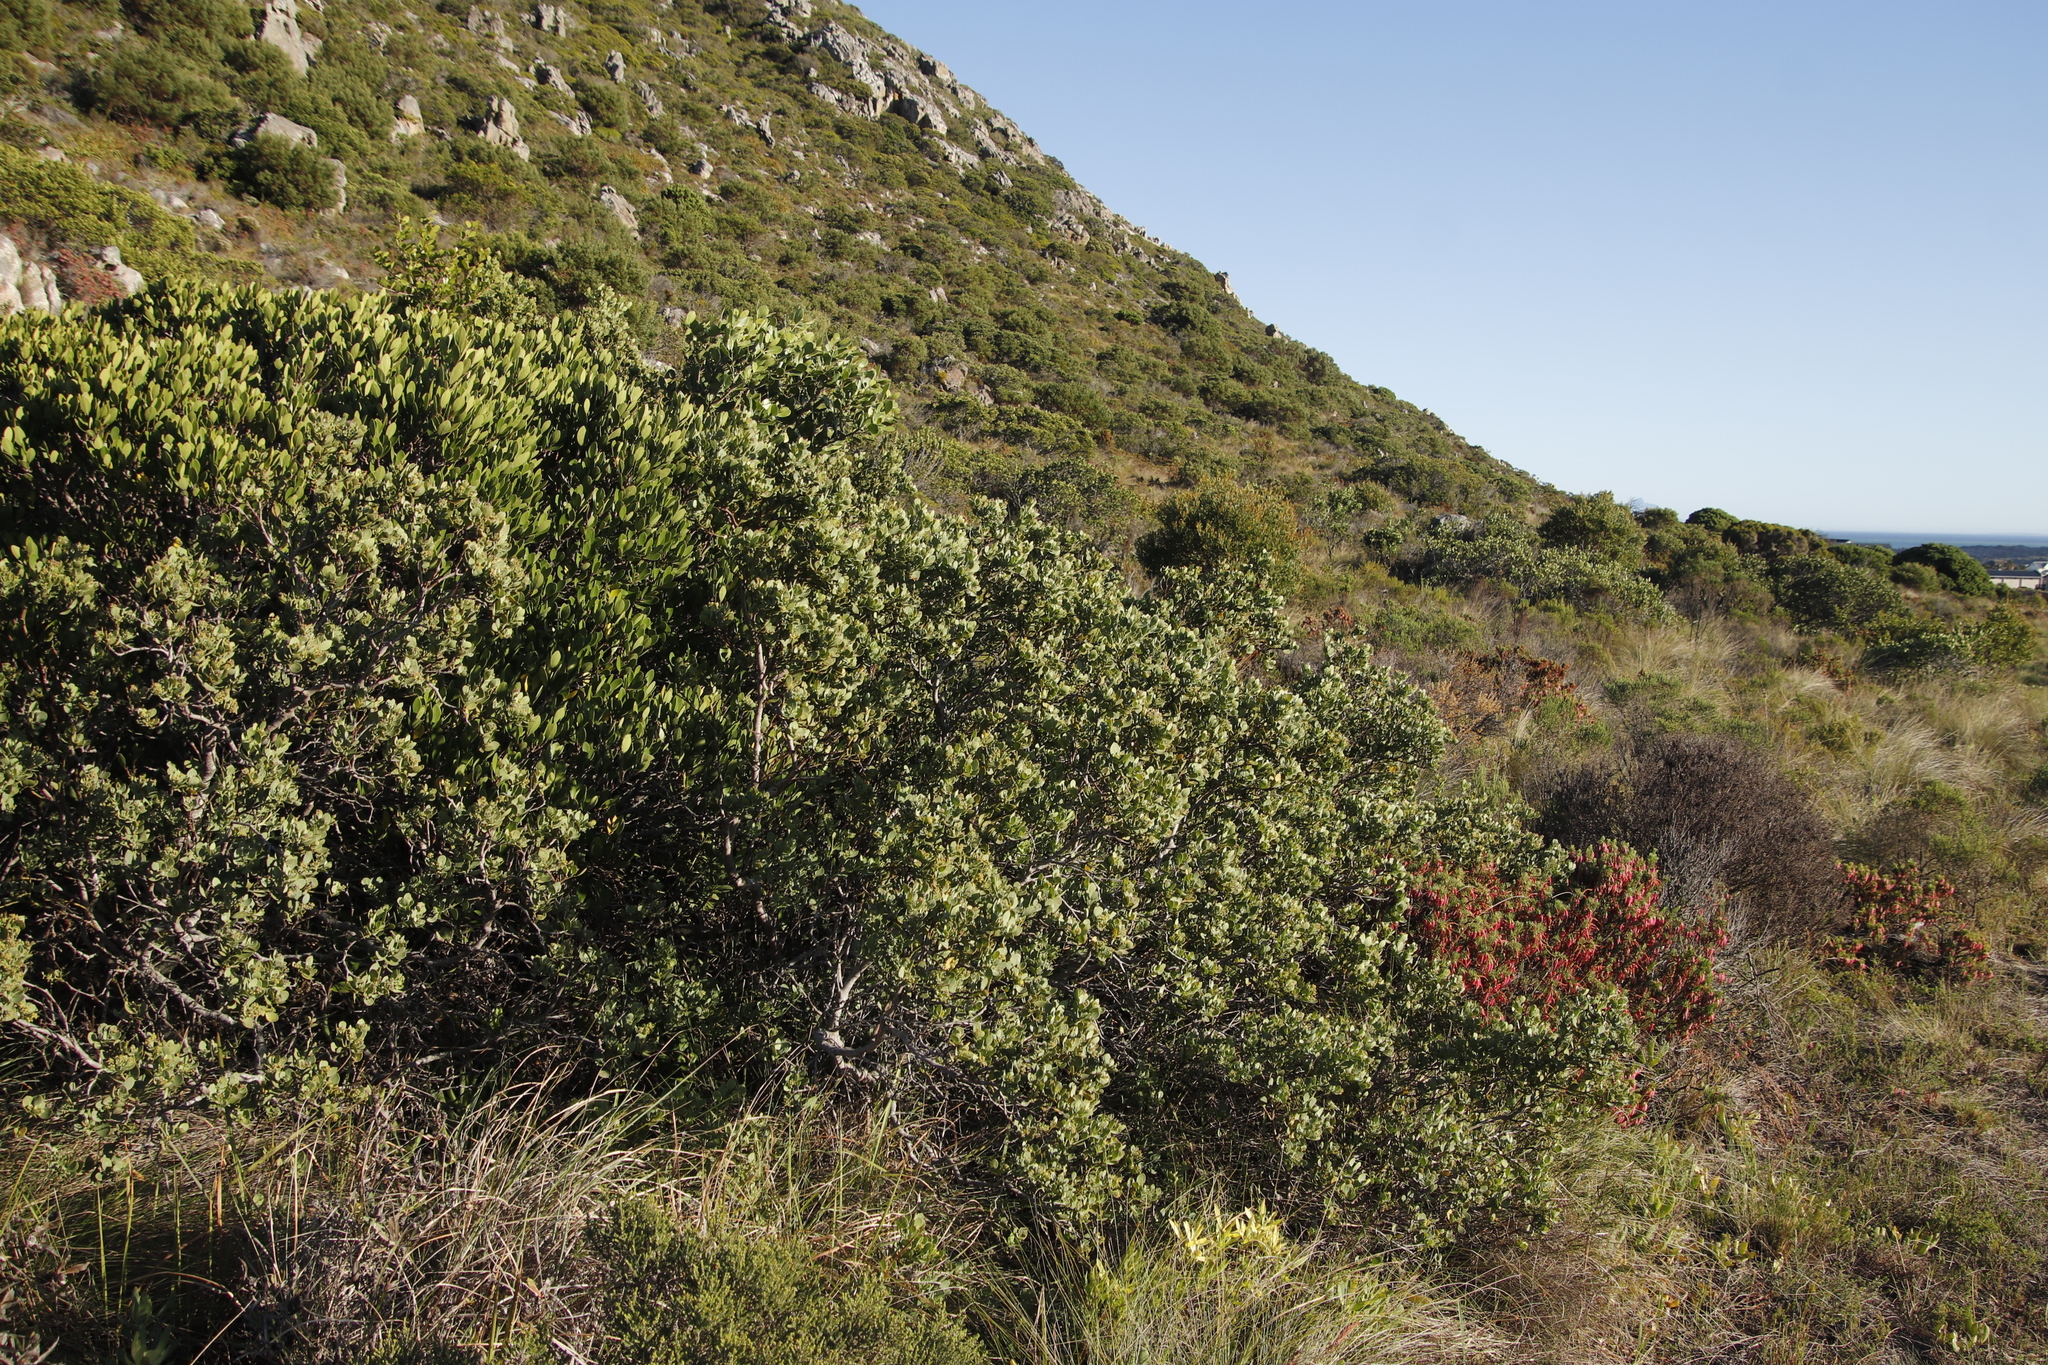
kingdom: Plantae
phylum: Tracheophyta
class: Magnoliopsida
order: Santalales
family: Santalaceae
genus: Osyris
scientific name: Osyris compressa
